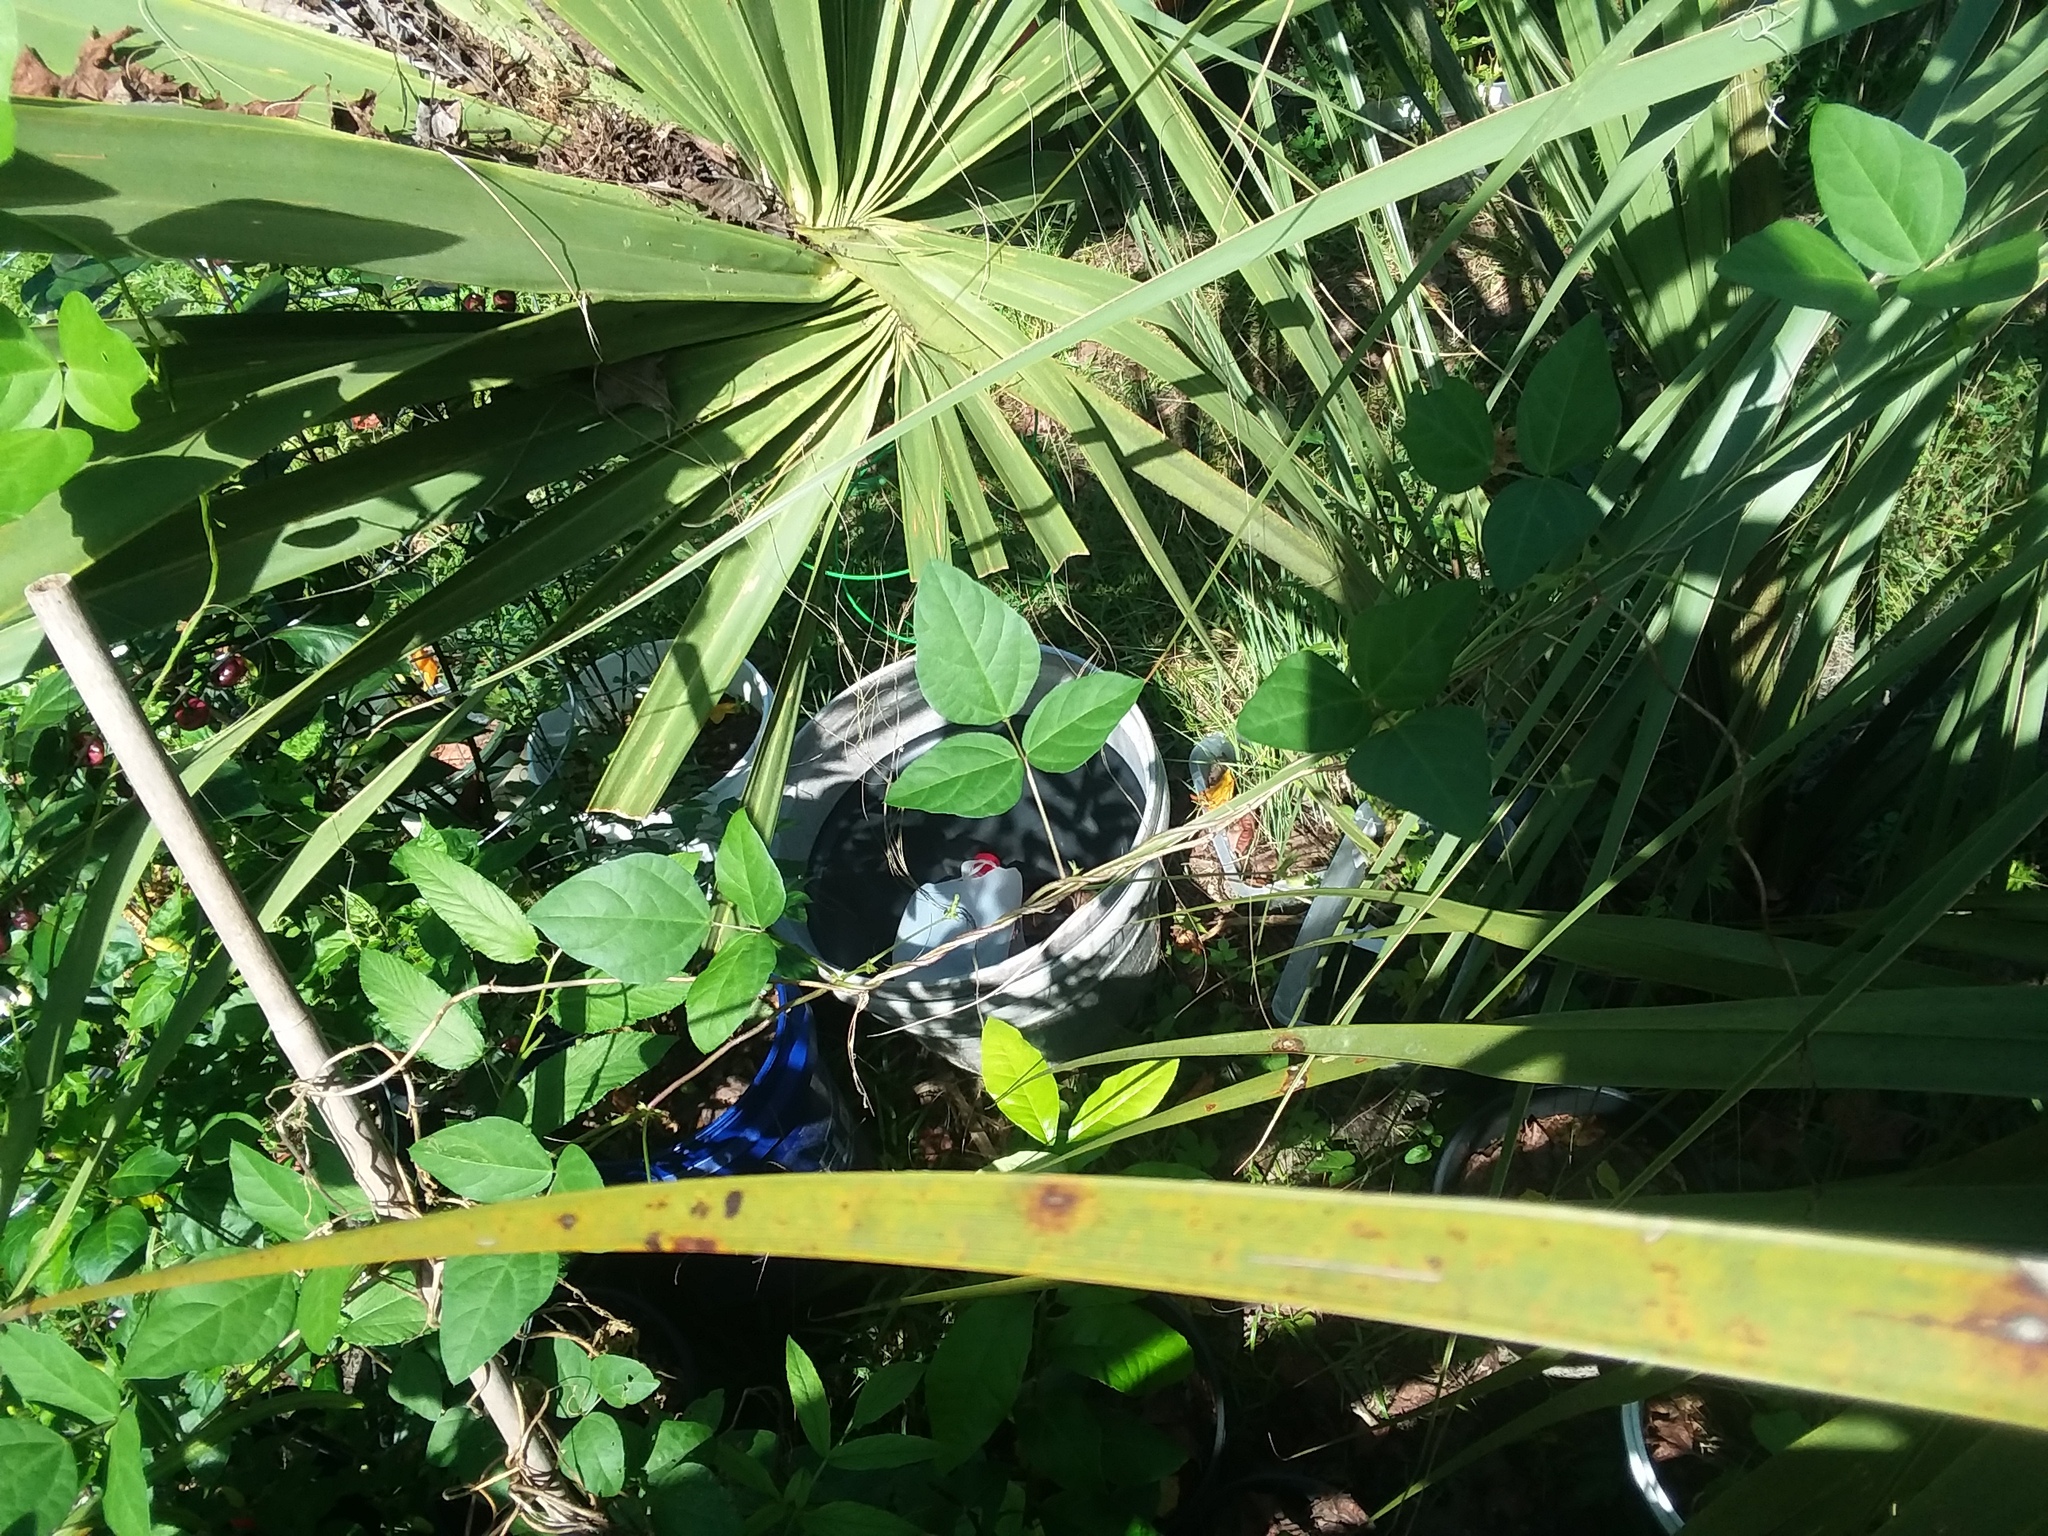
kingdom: Plantae
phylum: Tracheophyta
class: Magnoliopsida
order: Fabales
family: Fabaceae
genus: Strophostyles
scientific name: Strophostyles helvola
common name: Trailing wild bean
